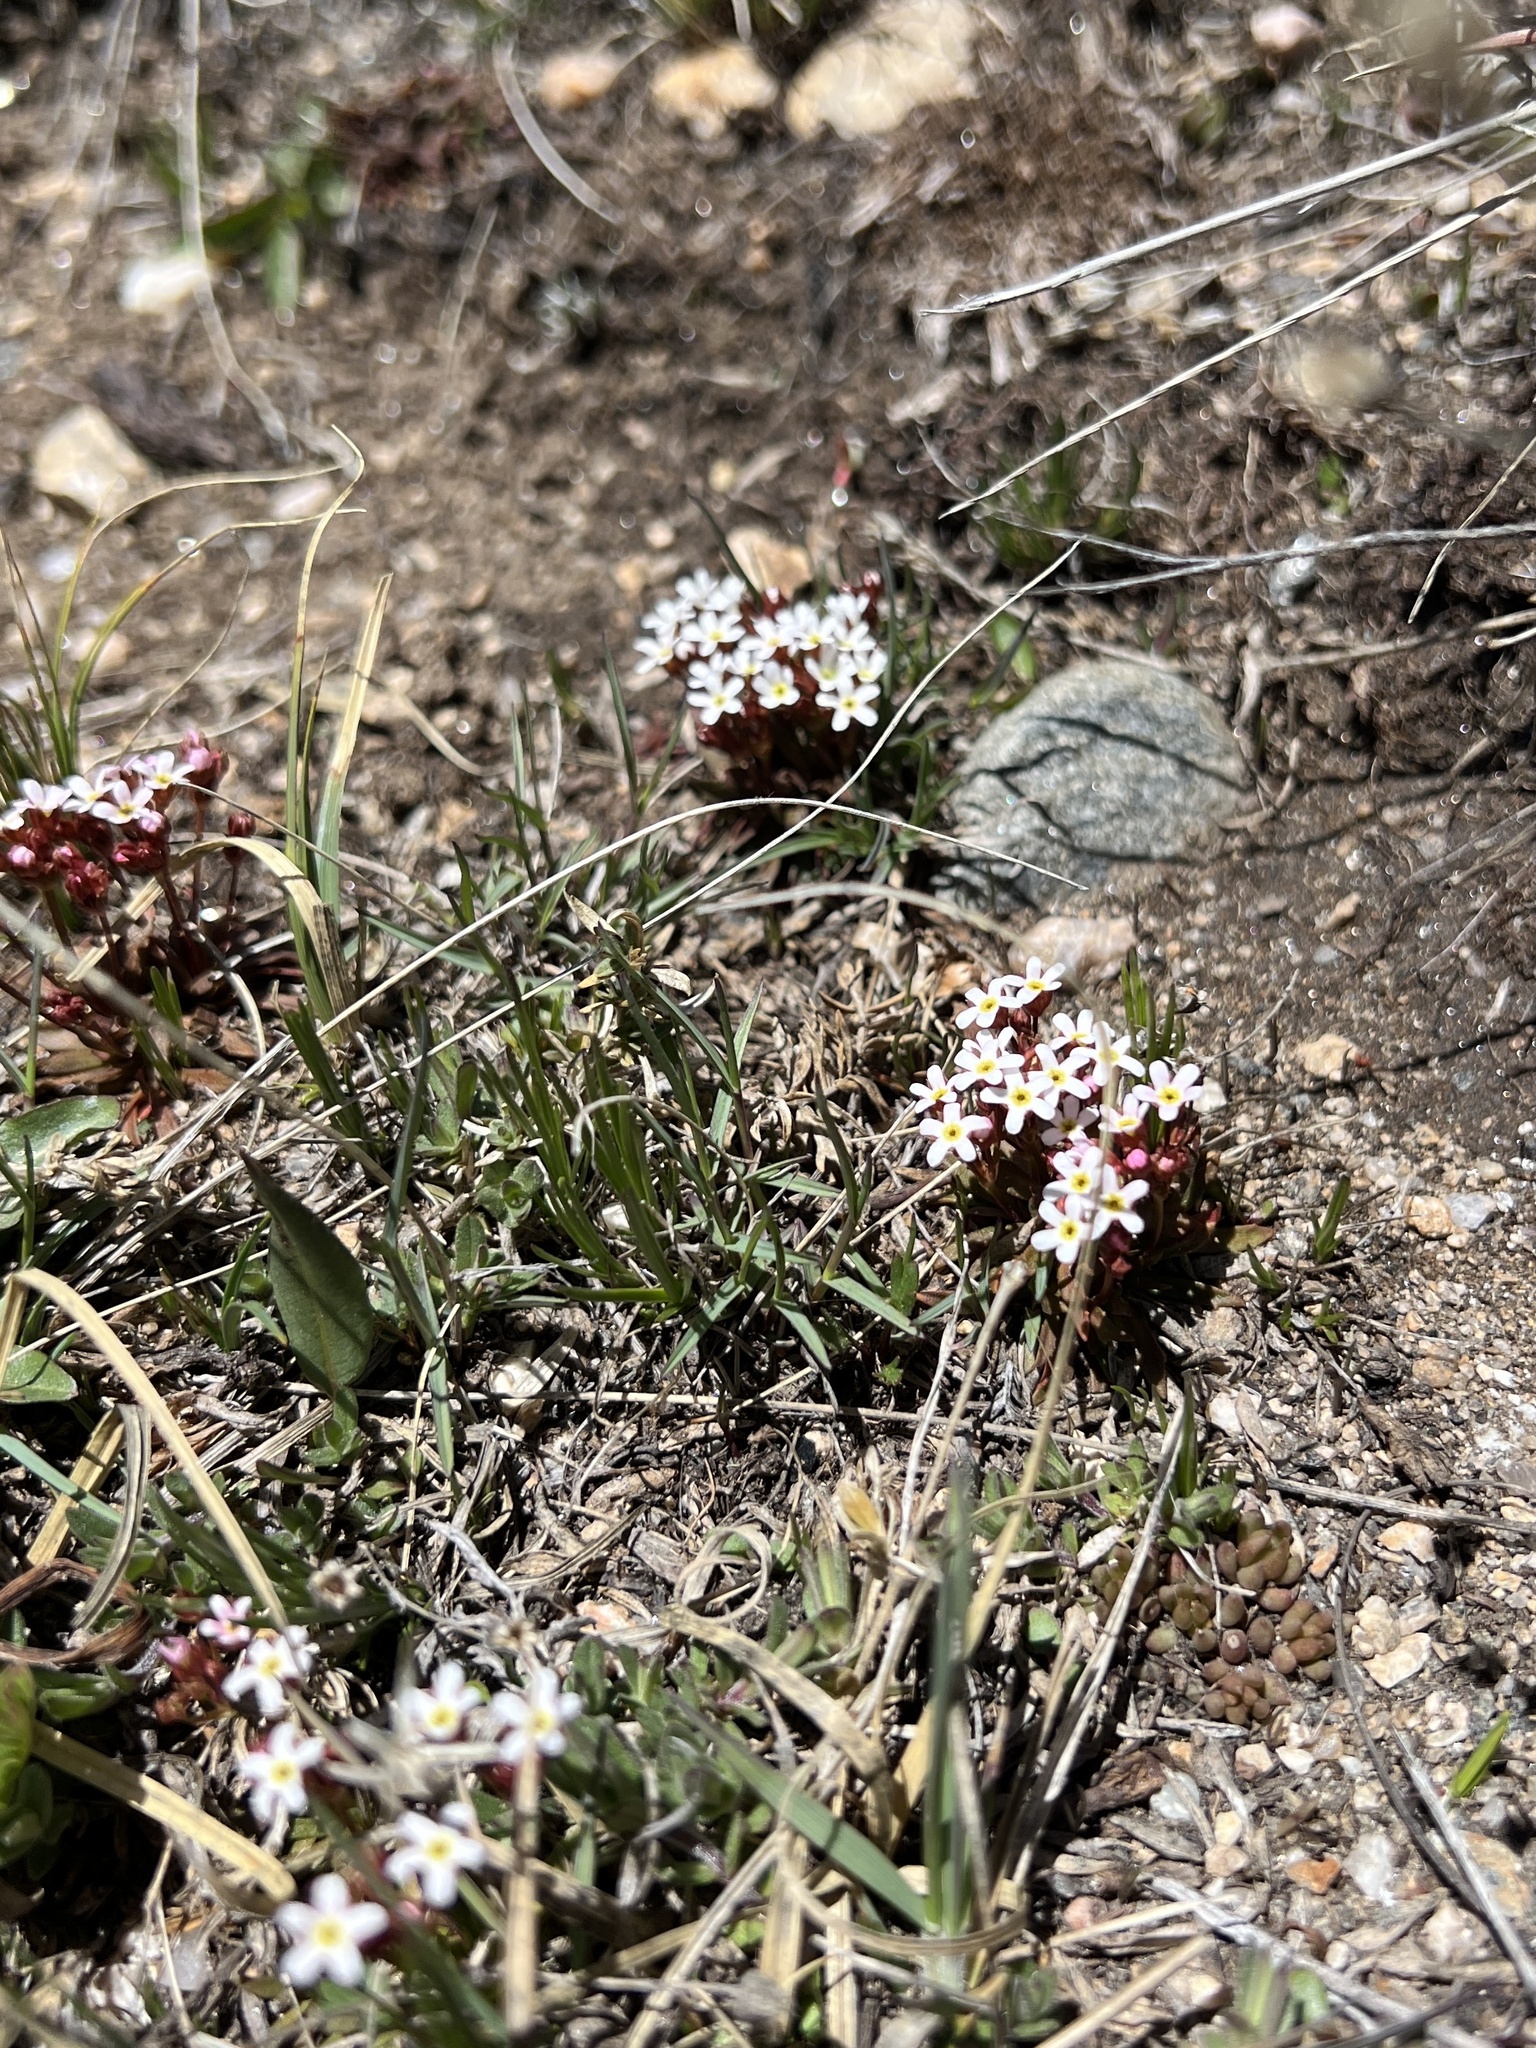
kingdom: Plantae
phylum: Tracheophyta
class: Magnoliopsida
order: Ericales
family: Primulaceae
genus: Androsace
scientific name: Androsace septentrionalis
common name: Hairy northern fairy-candelabra
